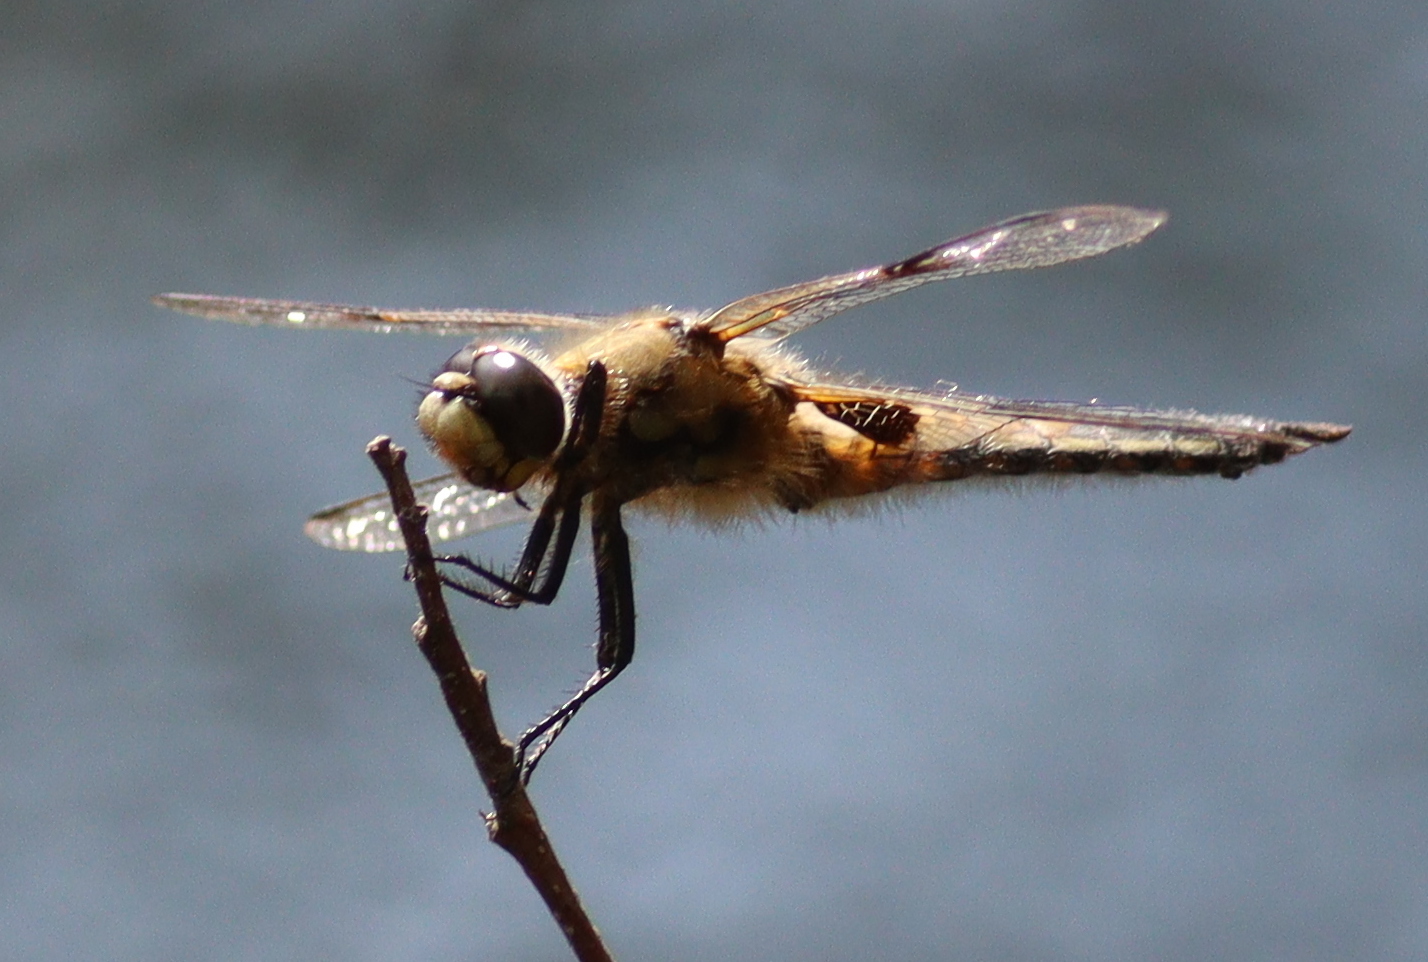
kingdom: Animalia
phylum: Arthropoda
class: Insecta
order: Odonata
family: Libellulidae
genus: Libellula
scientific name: Libellula quadrimaculata
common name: Four-spotted chaser
